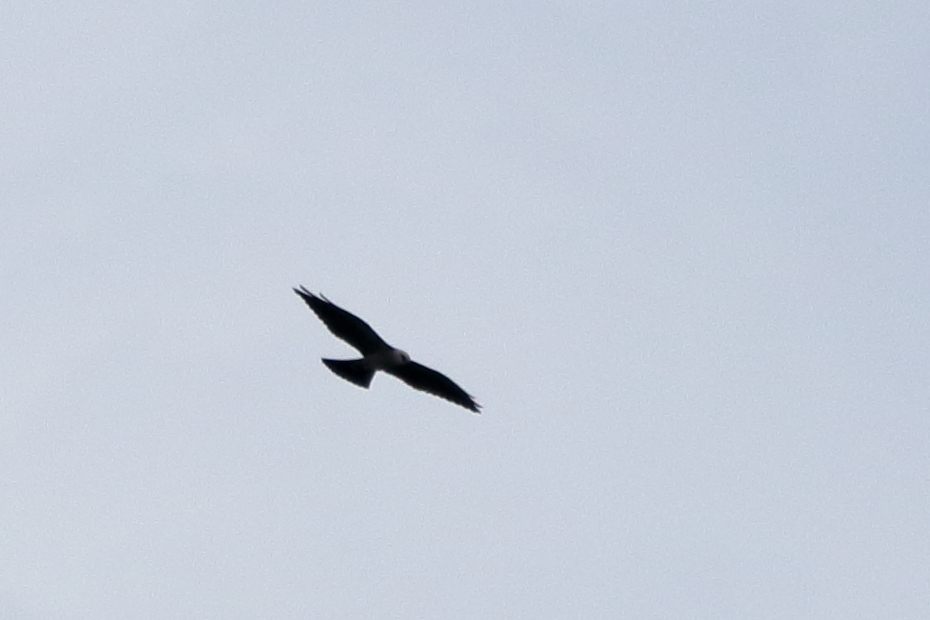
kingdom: Animalia
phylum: Chordata
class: Aves
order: Accipitriformes
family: Accipitridae
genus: Ictinia
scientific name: Ictinia mississippiensis
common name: Mississippi kite
